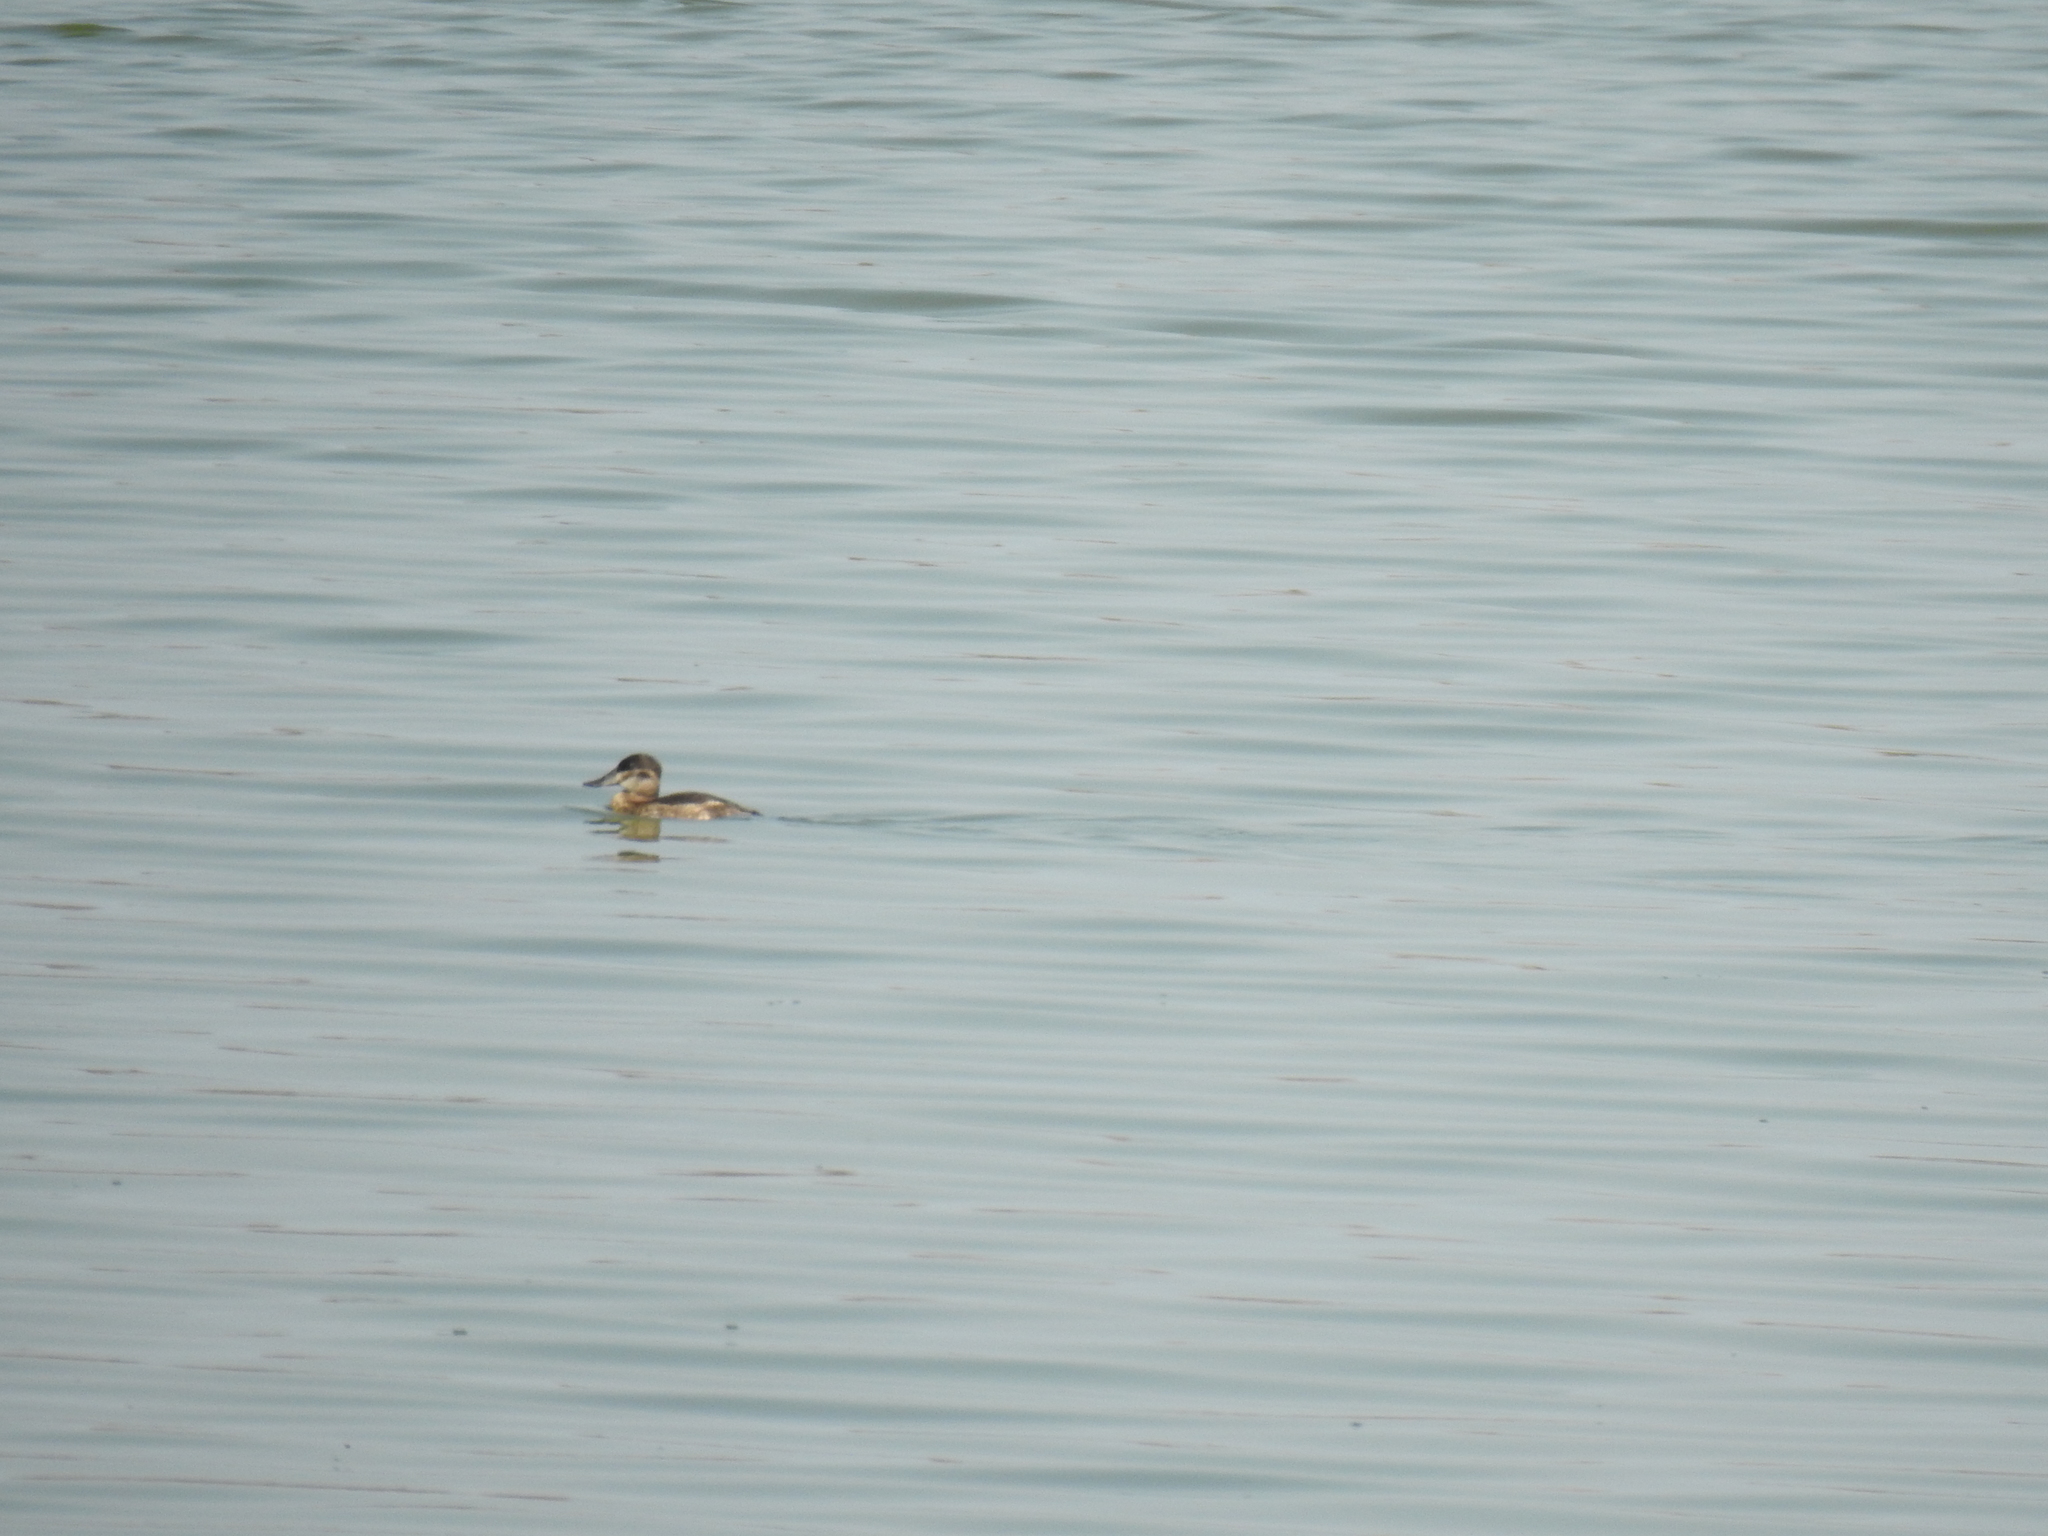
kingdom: Animalia
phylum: Chordata
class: Aves
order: Anseriformes
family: Anatidae
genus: Oxyura
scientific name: Oxyura jamaicensis
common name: Ruddy duck
